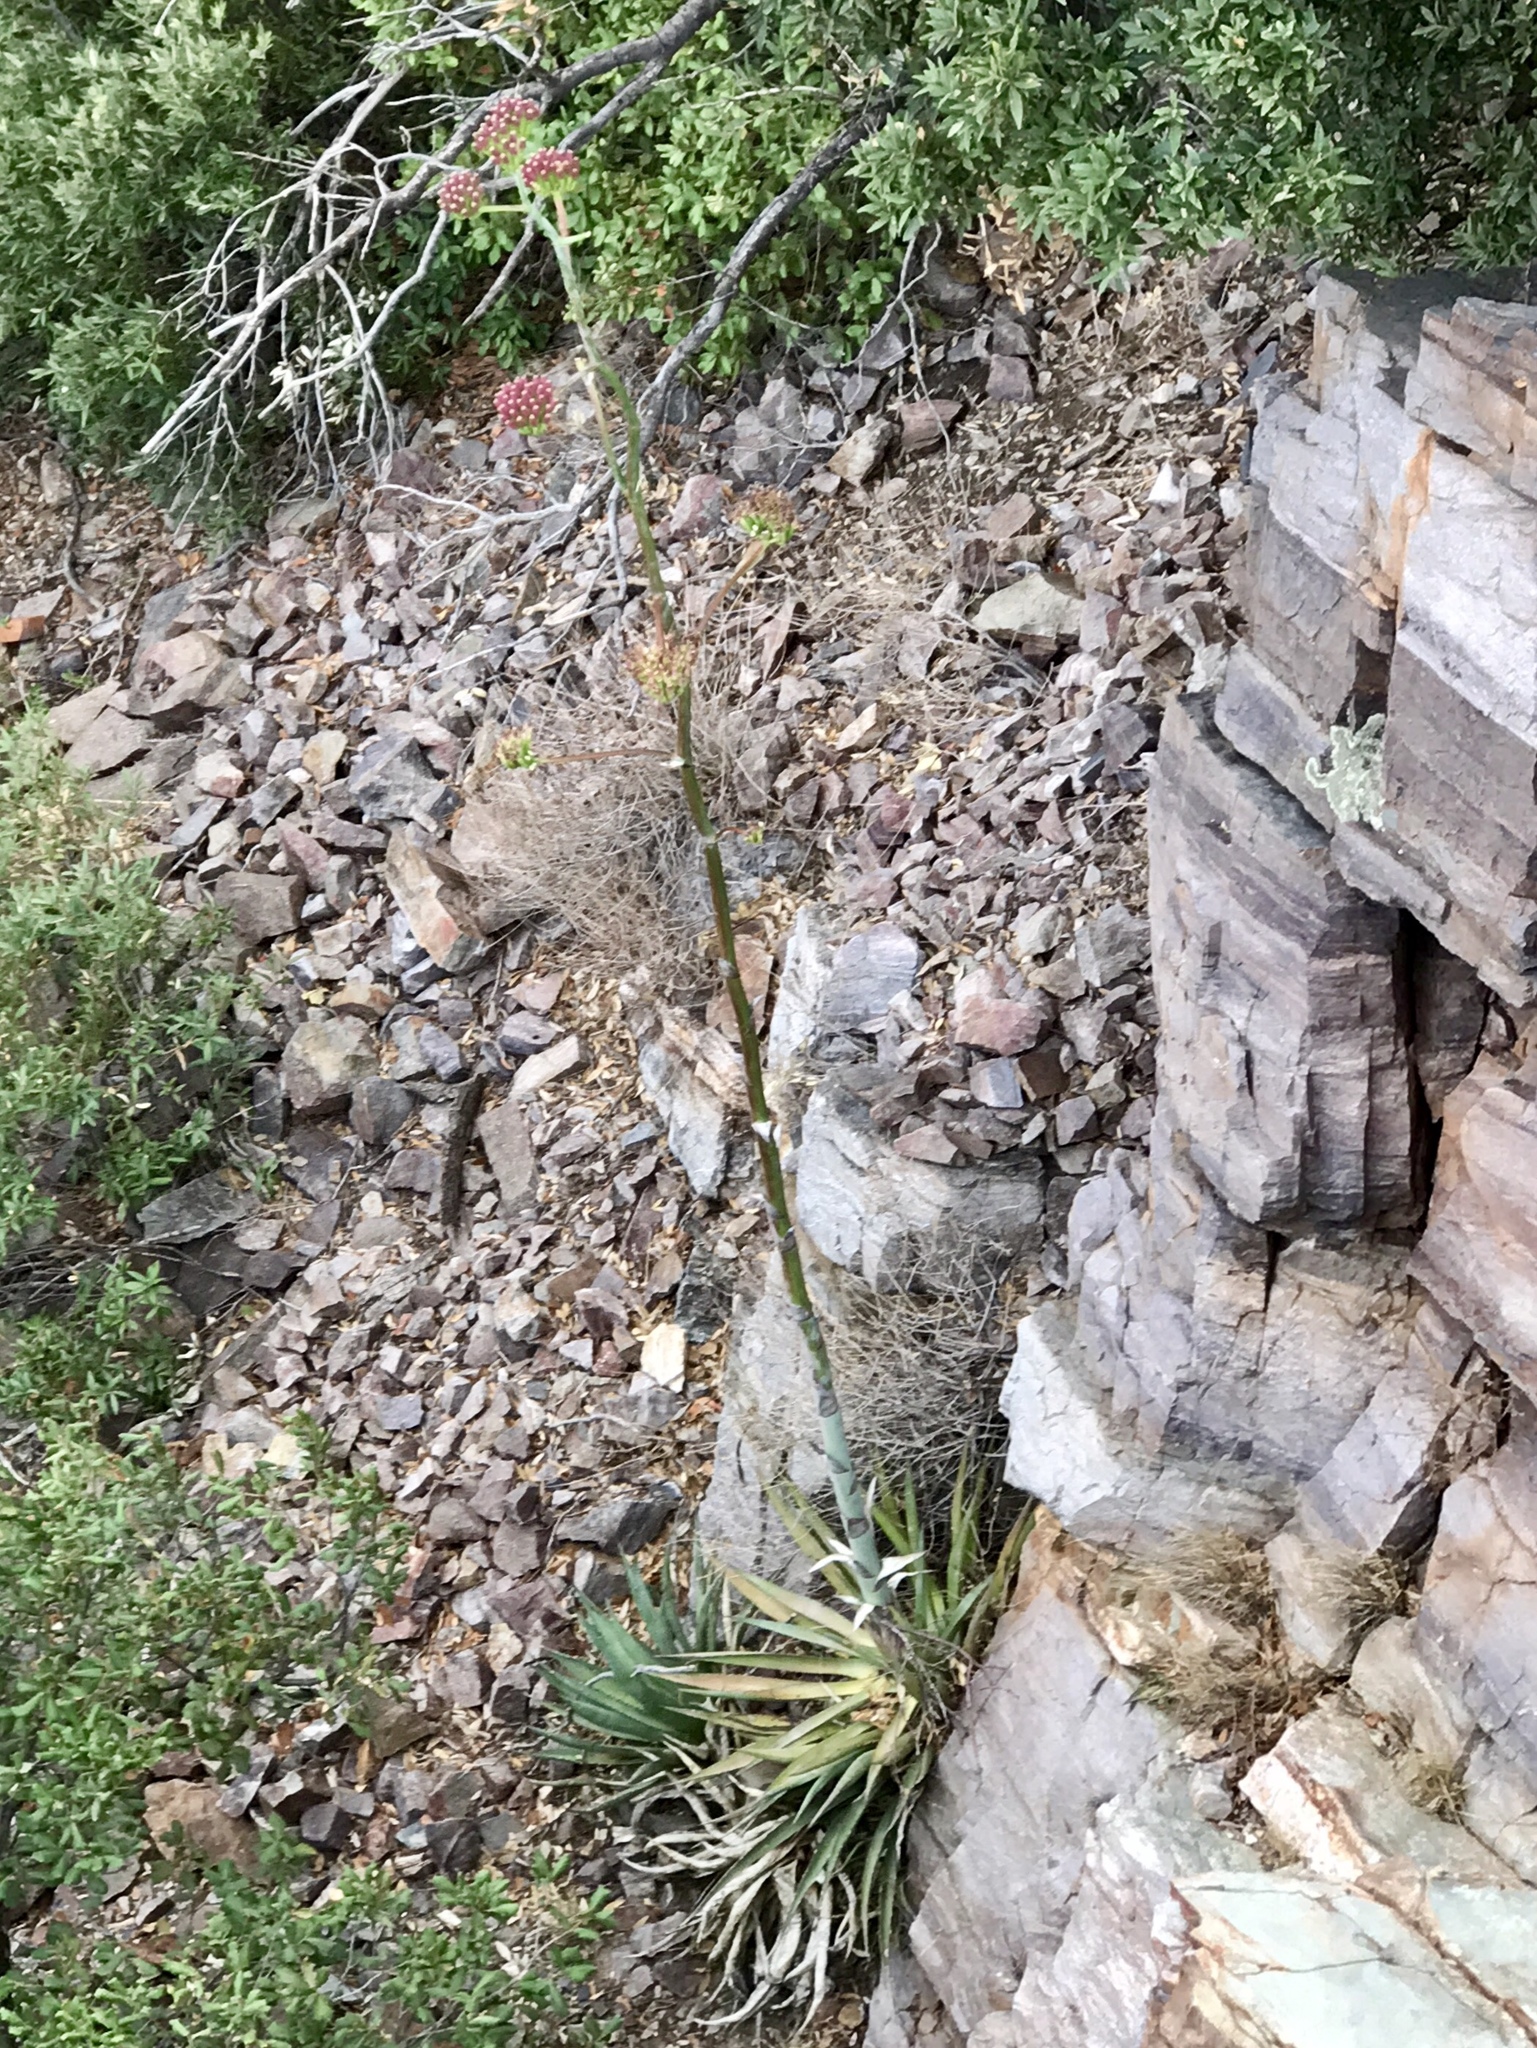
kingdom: Plantae
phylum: Tracheophyta
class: Liliopsida
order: Asparagales
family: Asparagaceae
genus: Agave
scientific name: Agave palmeri
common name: Palmer agave
